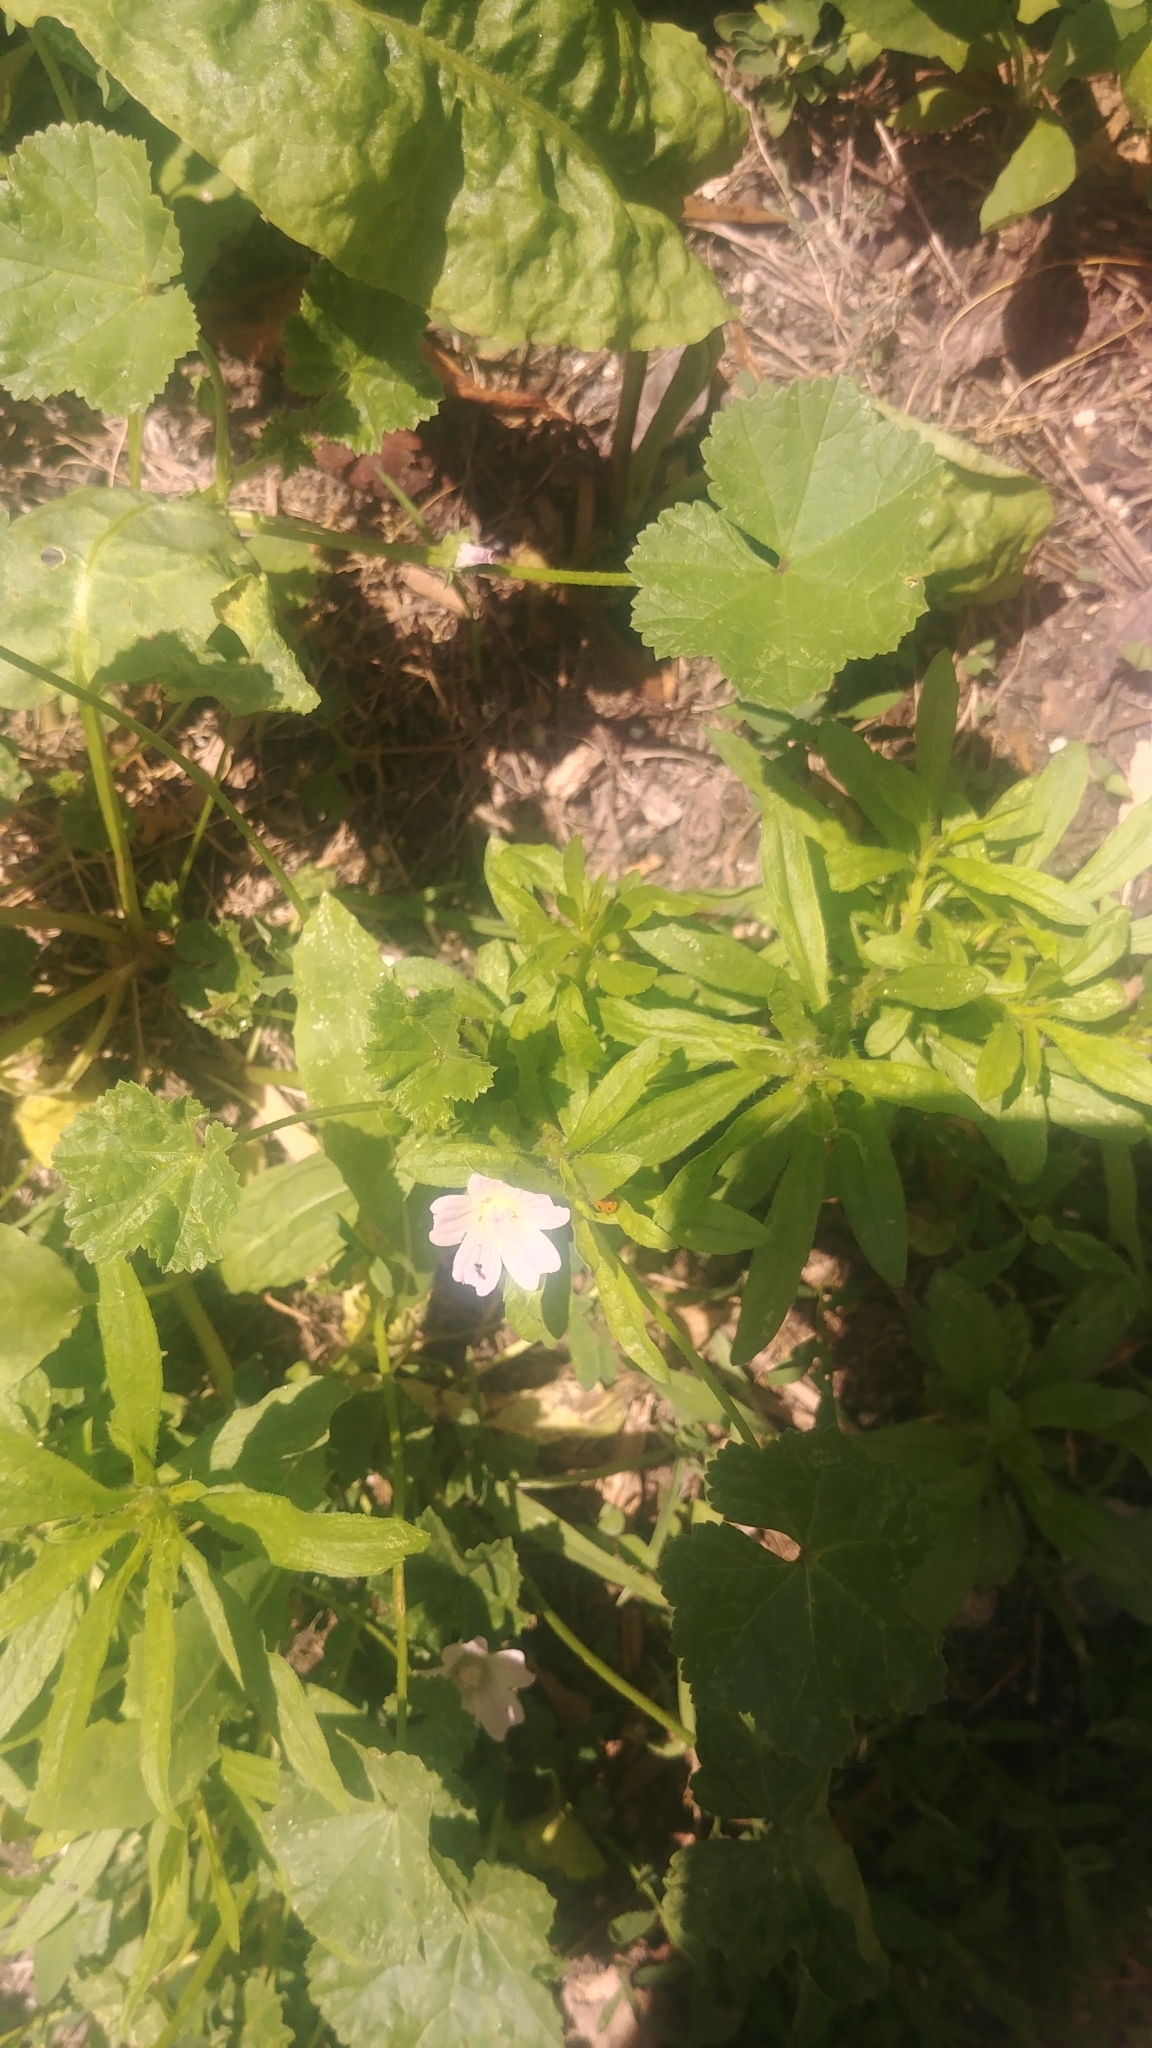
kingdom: Plantae
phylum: Tracheophyta
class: Magnoliopsida
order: Malvales
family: Malvaceae
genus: Malva
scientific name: Malva neglecta
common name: Common mallow
